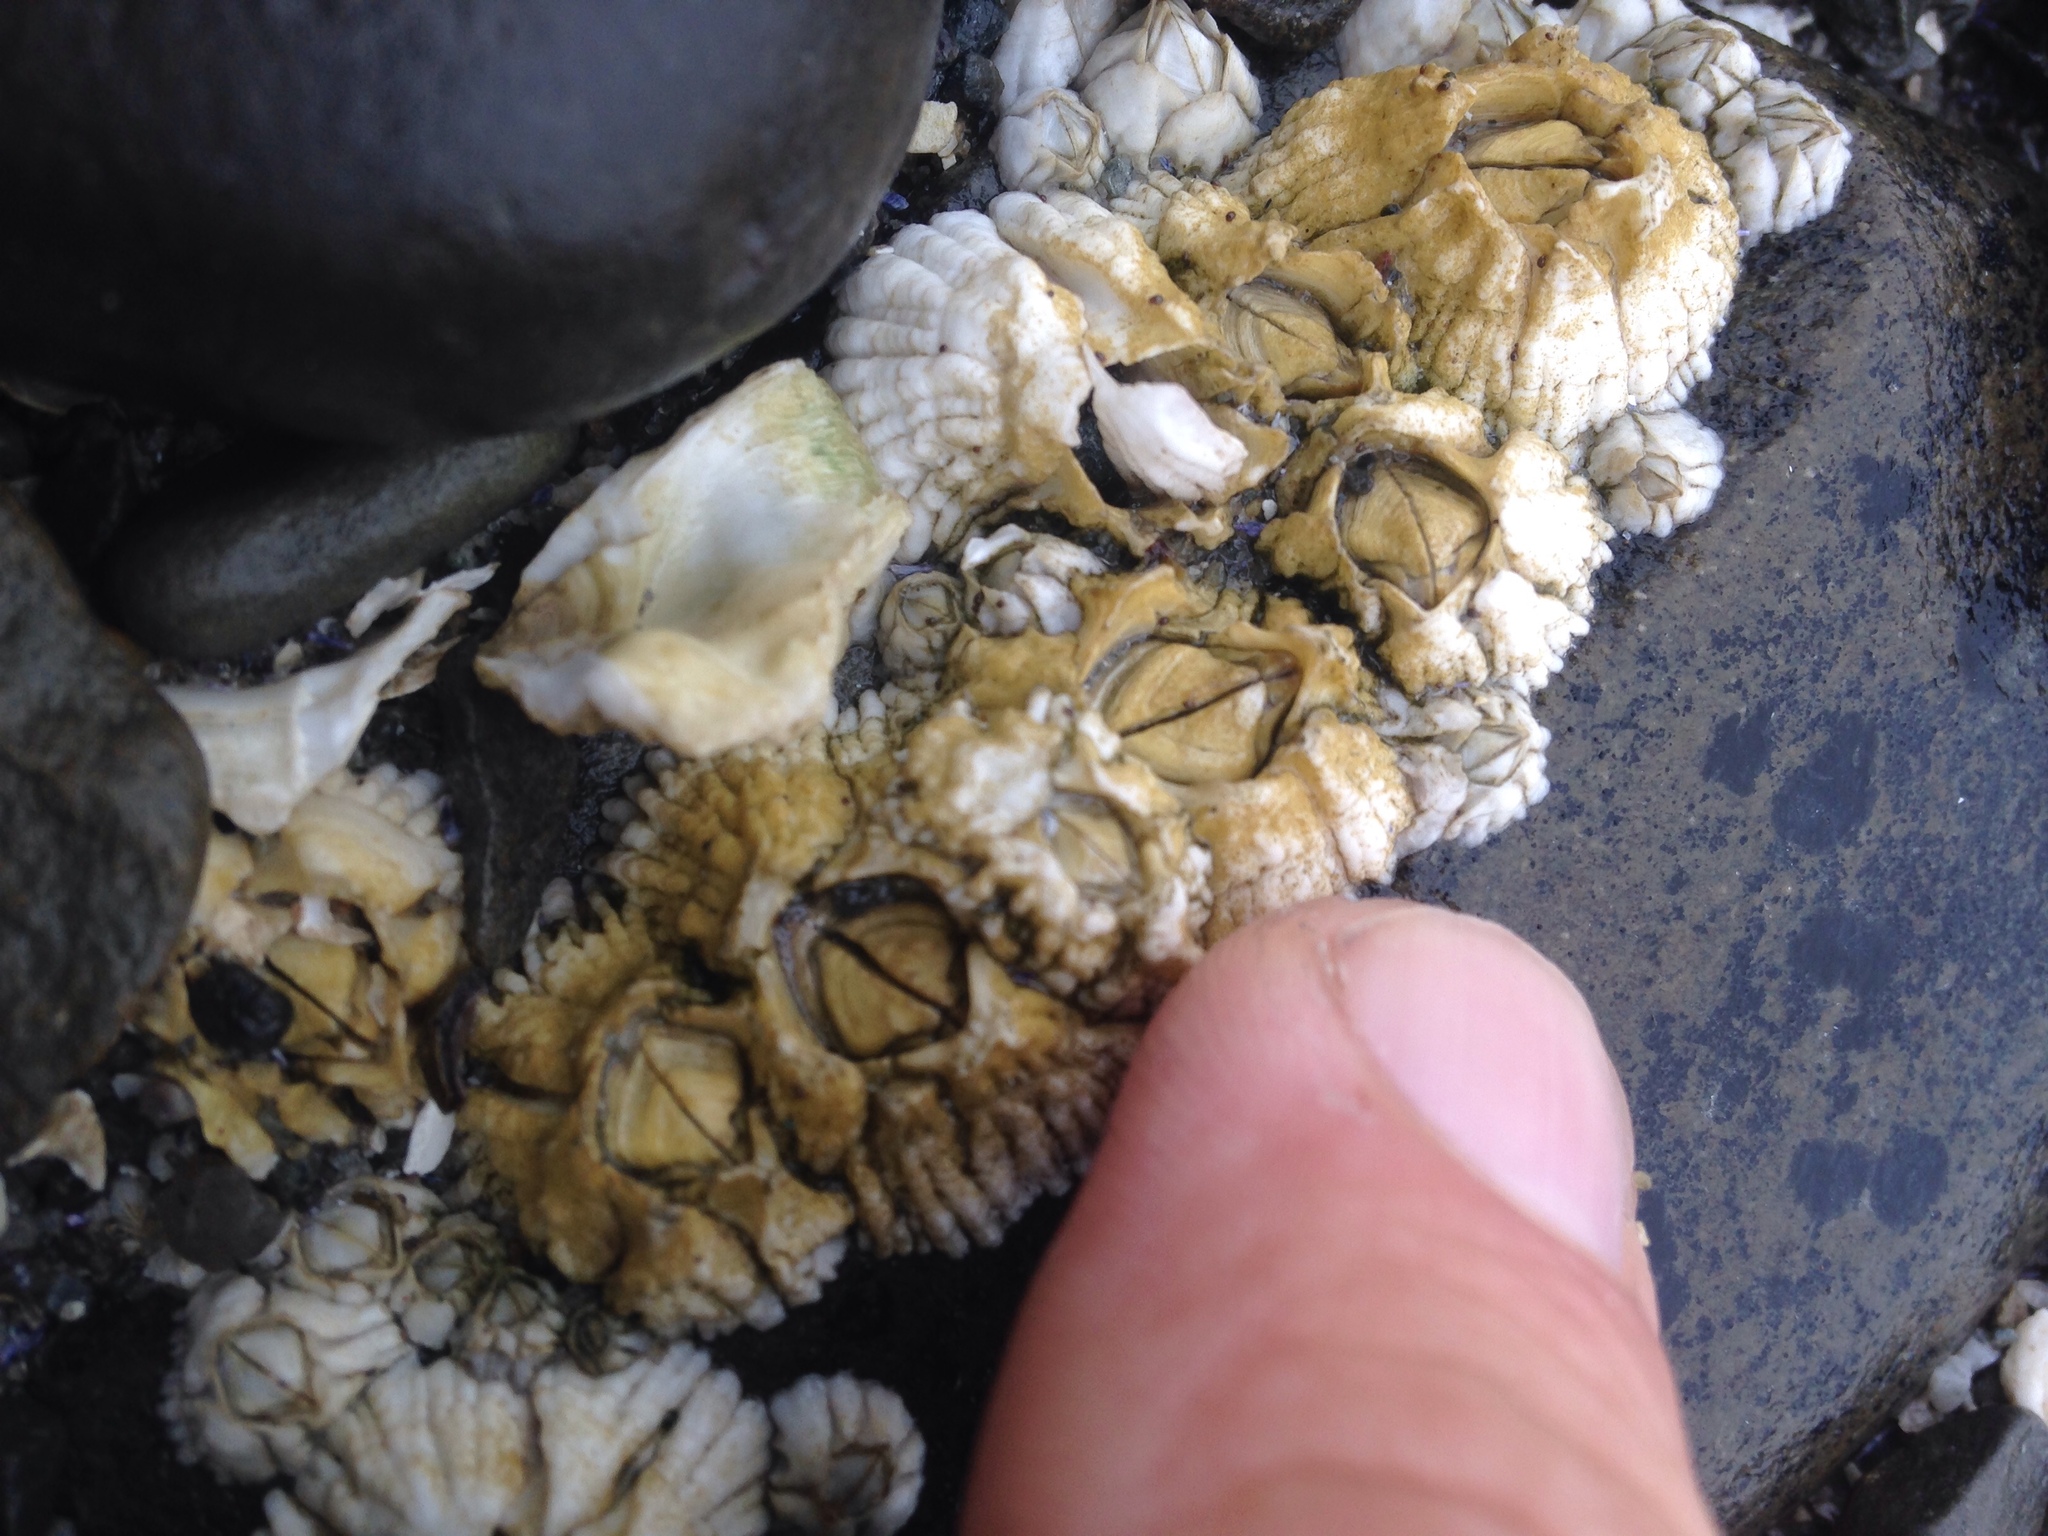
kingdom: Animalia
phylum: Arthropoda
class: Maxillopoda
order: Sessilia
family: Archaeobalanidae
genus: Semibalanus
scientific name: Semibalanus balanoides
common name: Acorn barnacle
